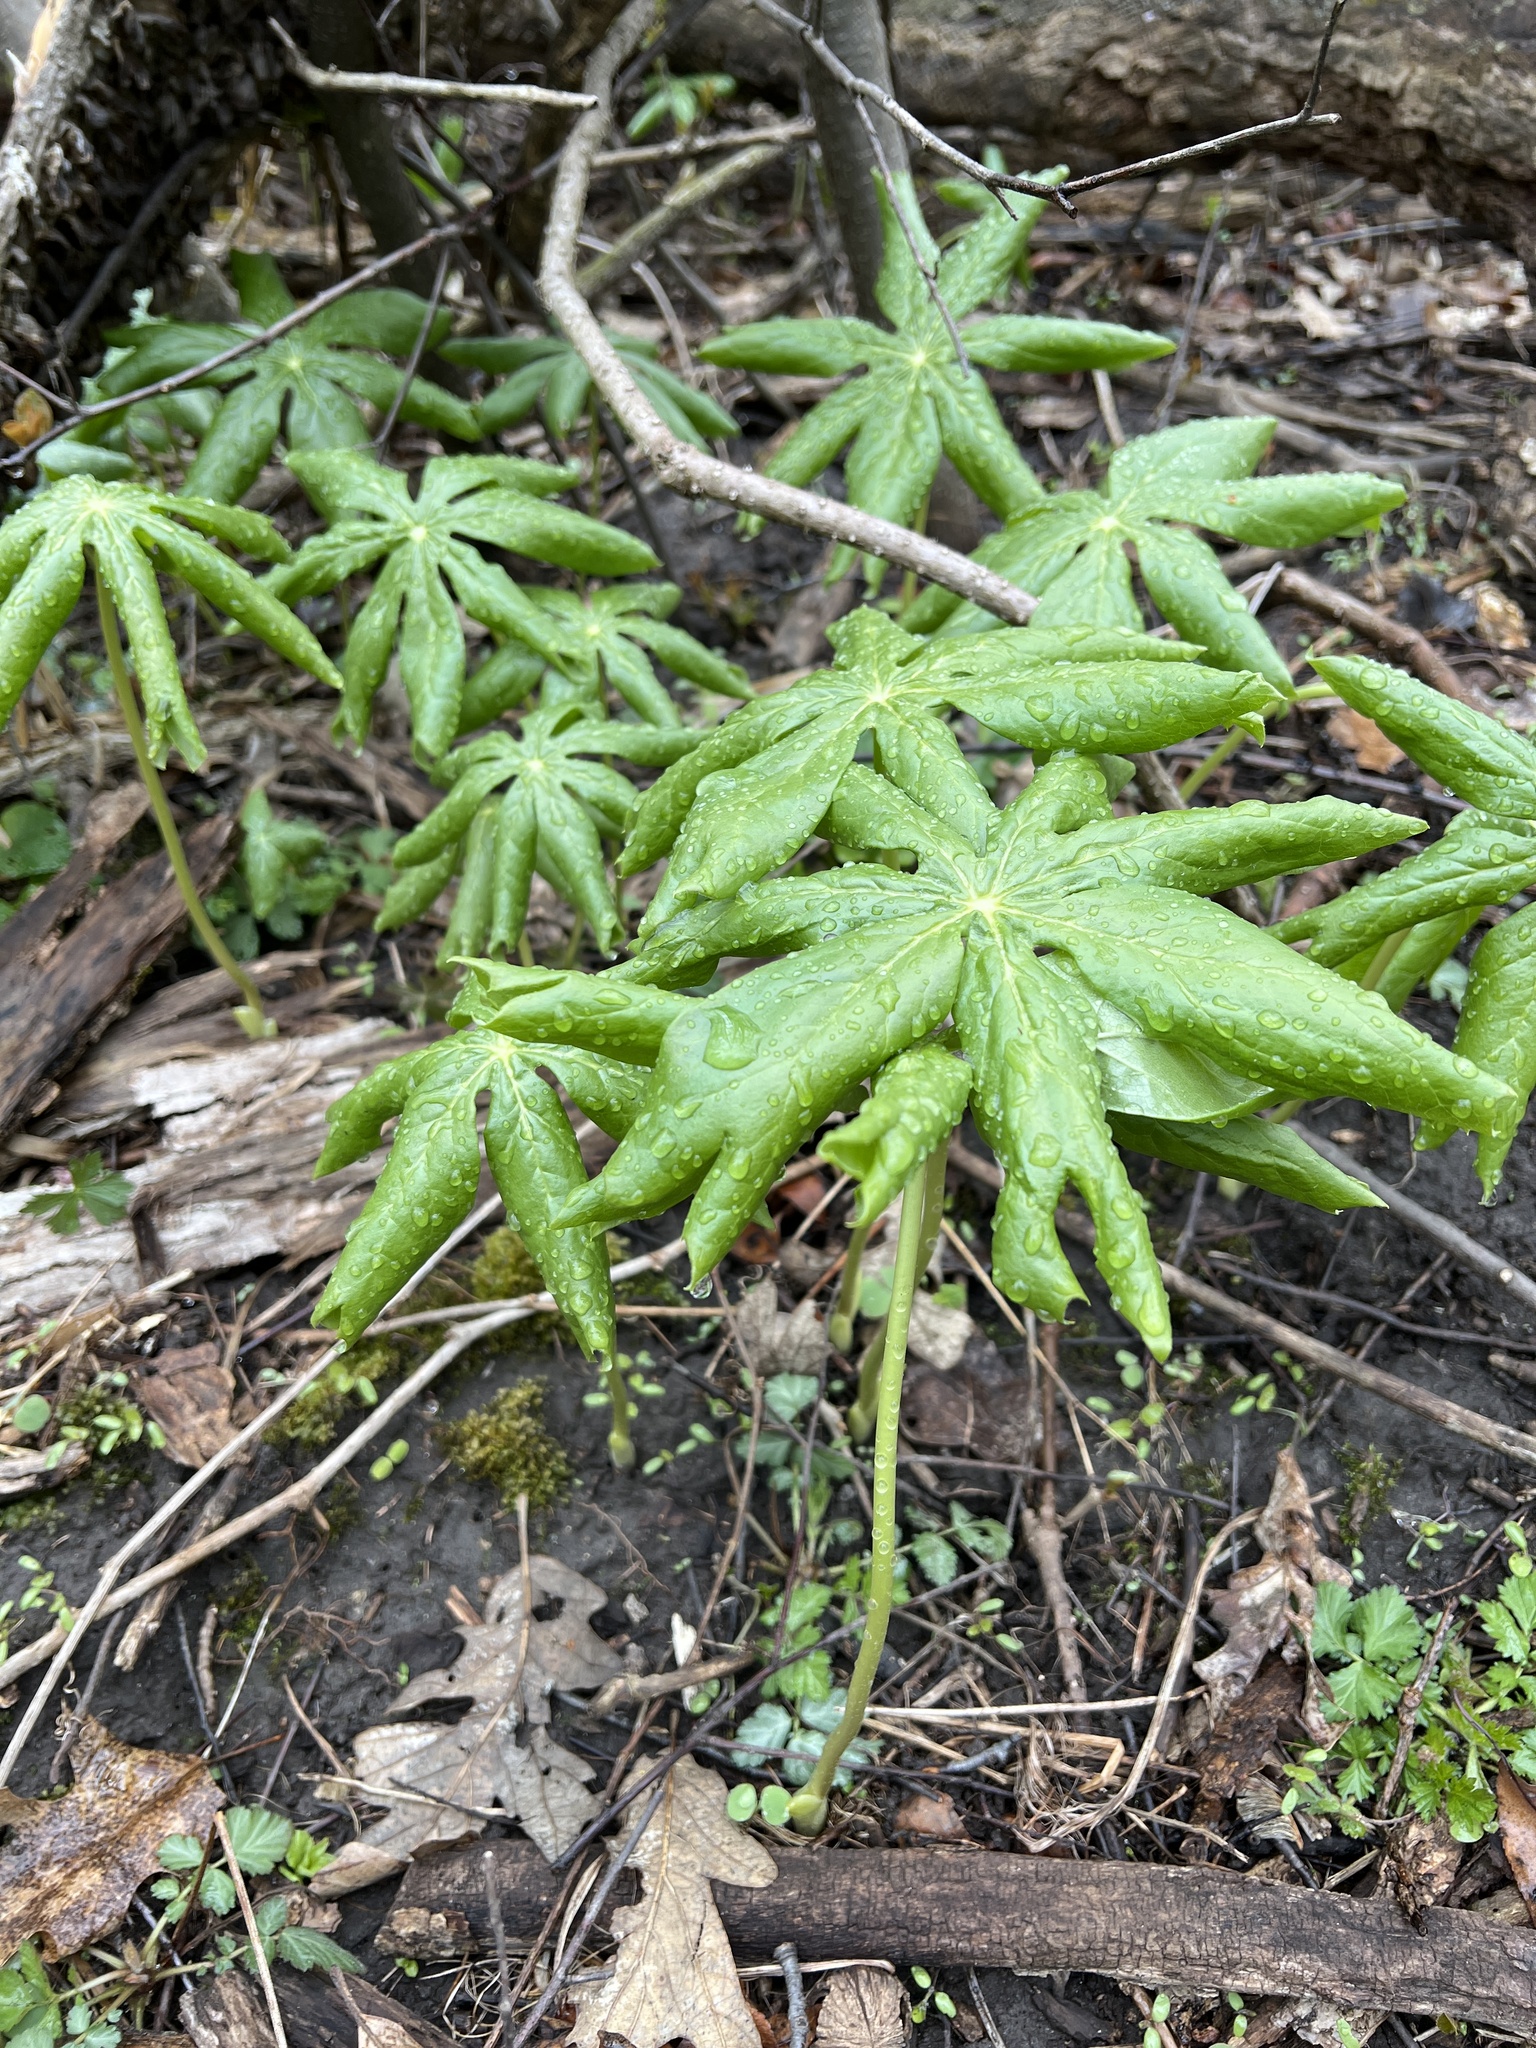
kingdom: Plantae
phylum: Tracheophyta
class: Magnoliopsida
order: Ranunculales
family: Berberidaceae
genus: Podophyllum
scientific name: Podophyllum peltatum
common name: Wild mandrake
